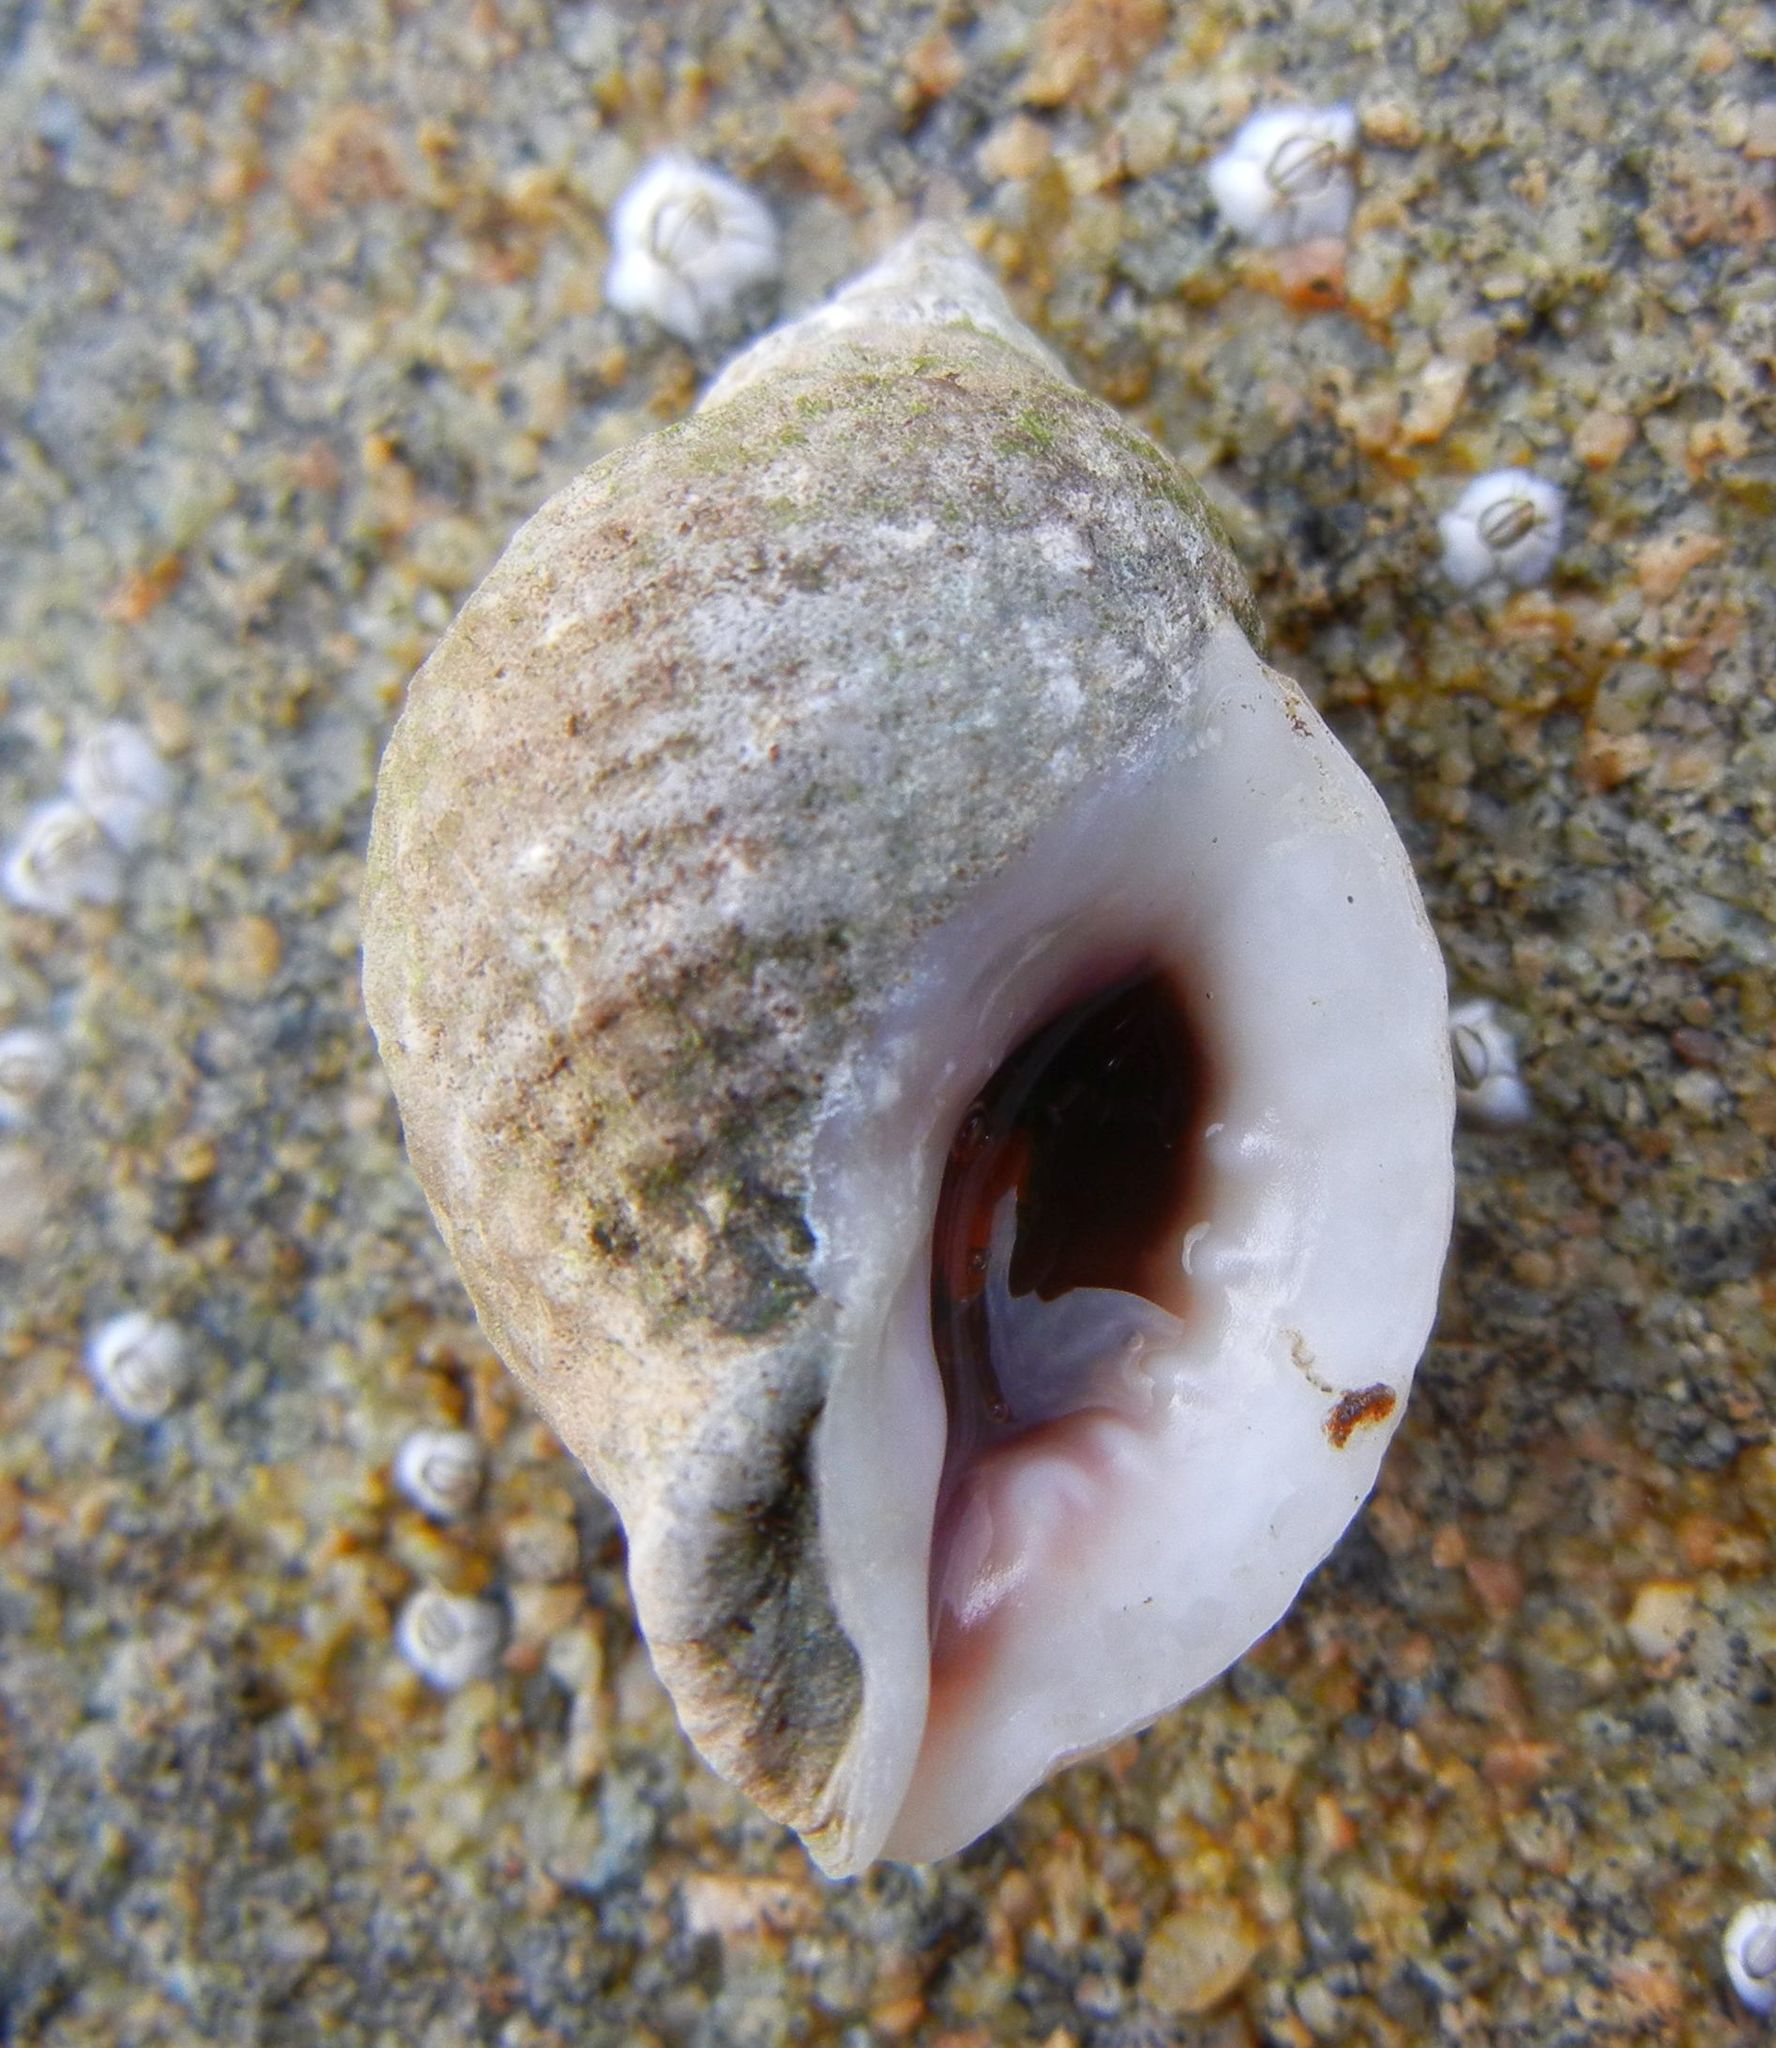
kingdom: Animalia
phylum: Mollusca
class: Gastropoda
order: Neogastropoda
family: Muricidae
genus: Nucella
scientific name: Nucella lapillus
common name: Dog whelk
